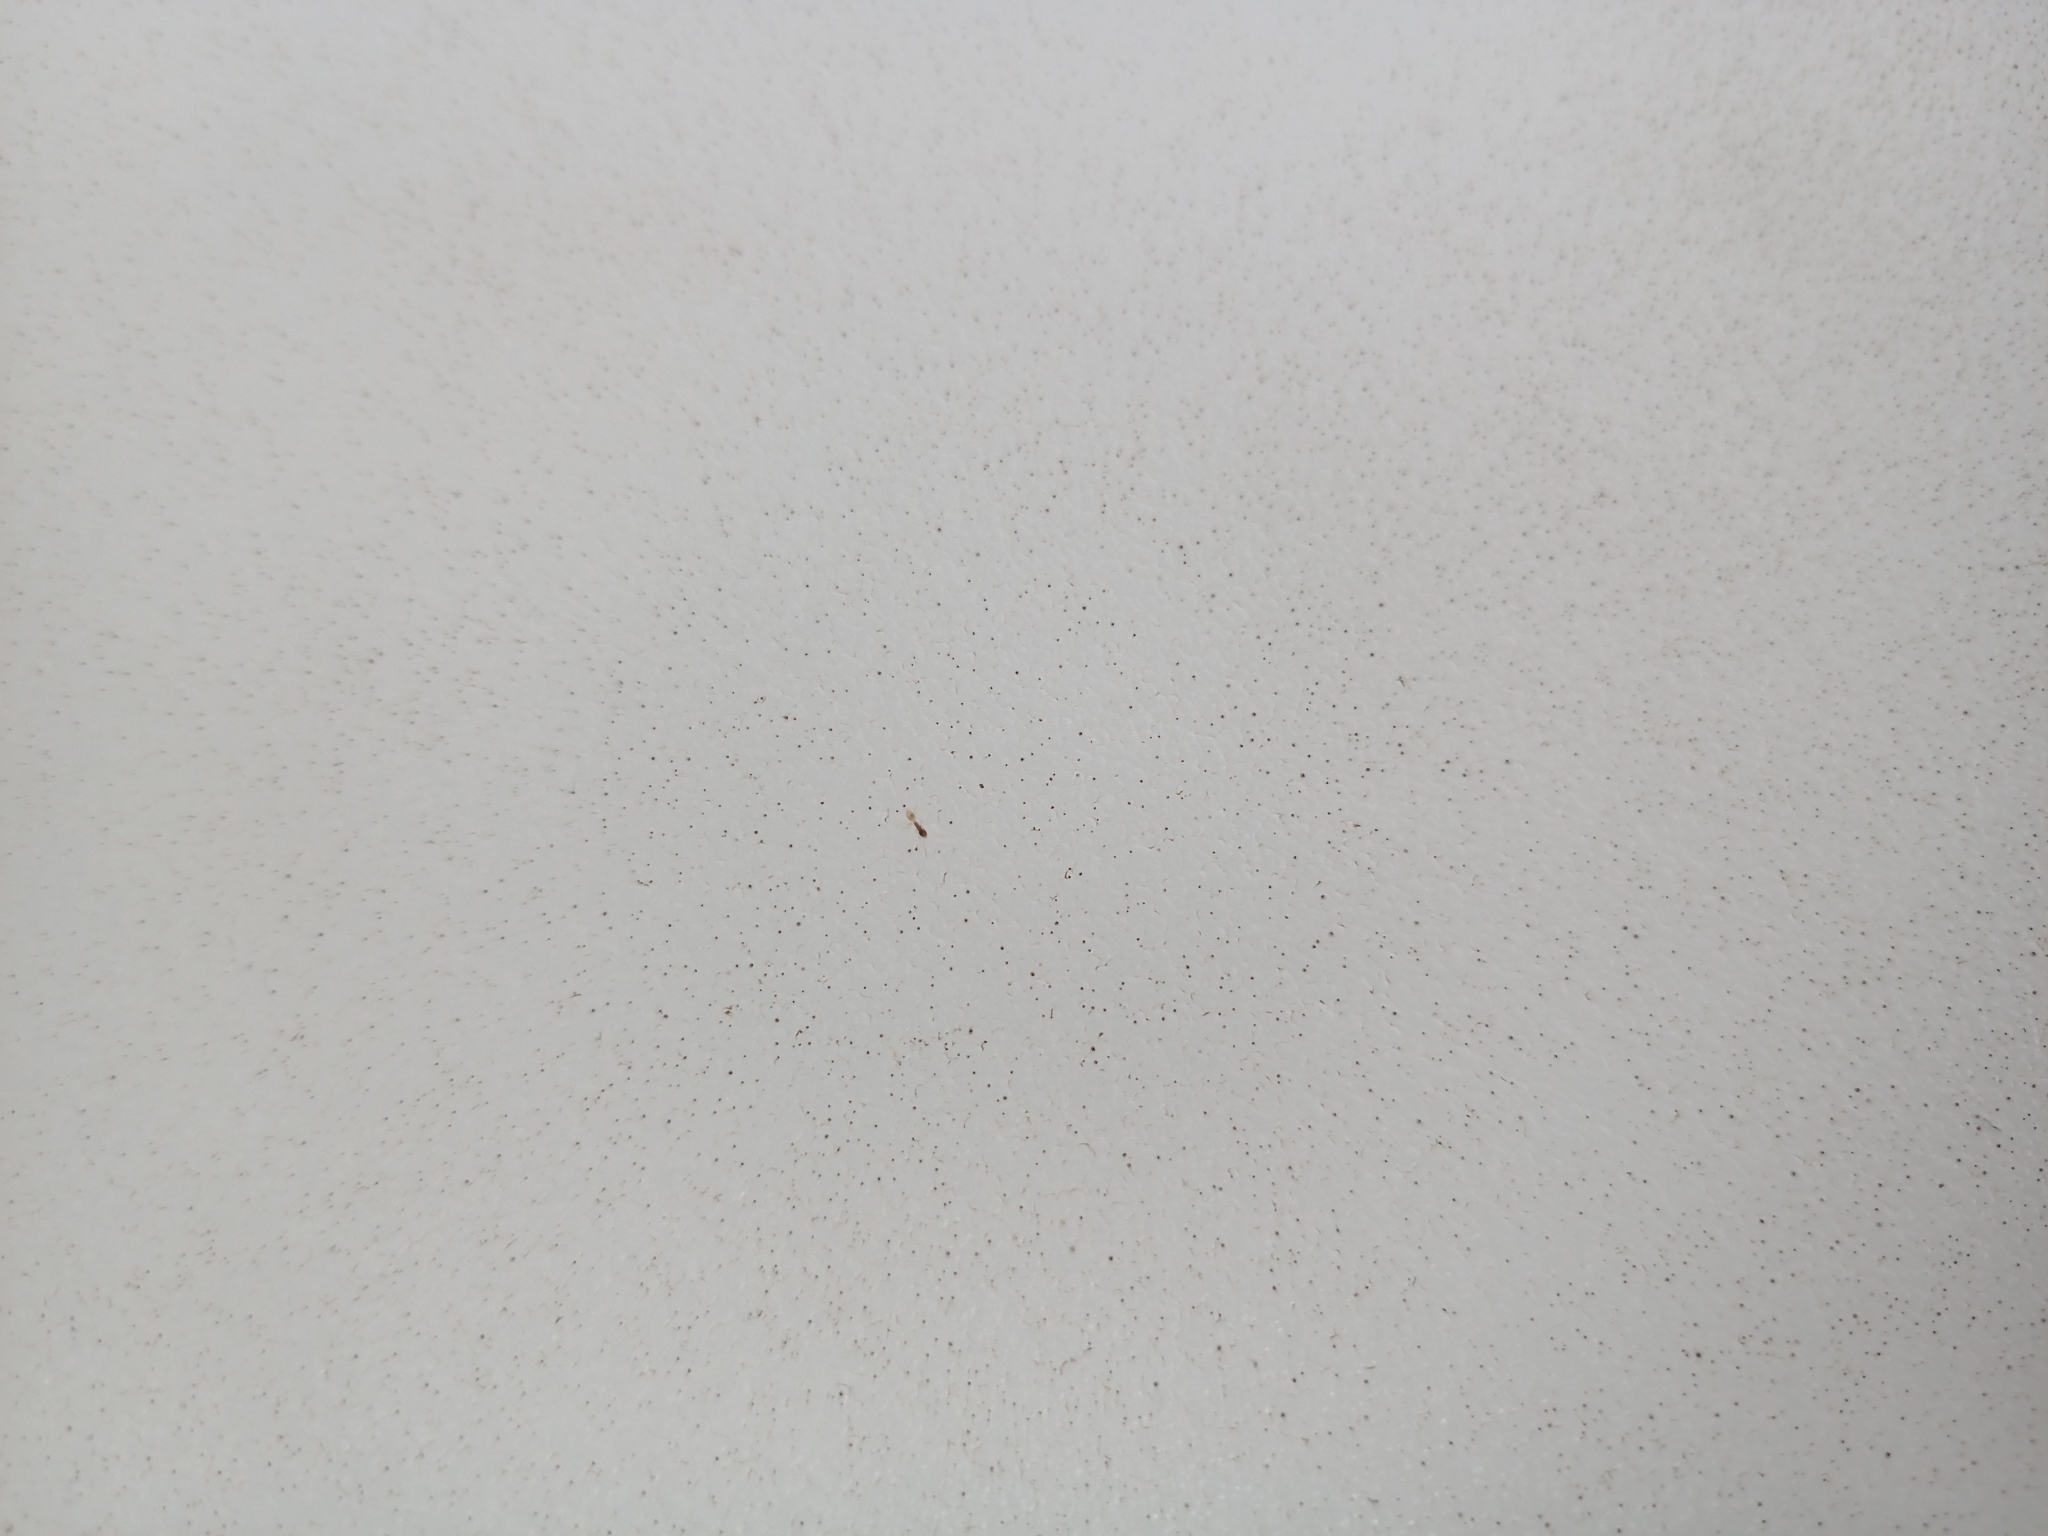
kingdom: Animalia
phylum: Arthropoda
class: Insecta
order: Hymenoptera
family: Formicidae
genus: Tapinoma
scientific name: Tapinoma melanocephalum
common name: Ghost ant
